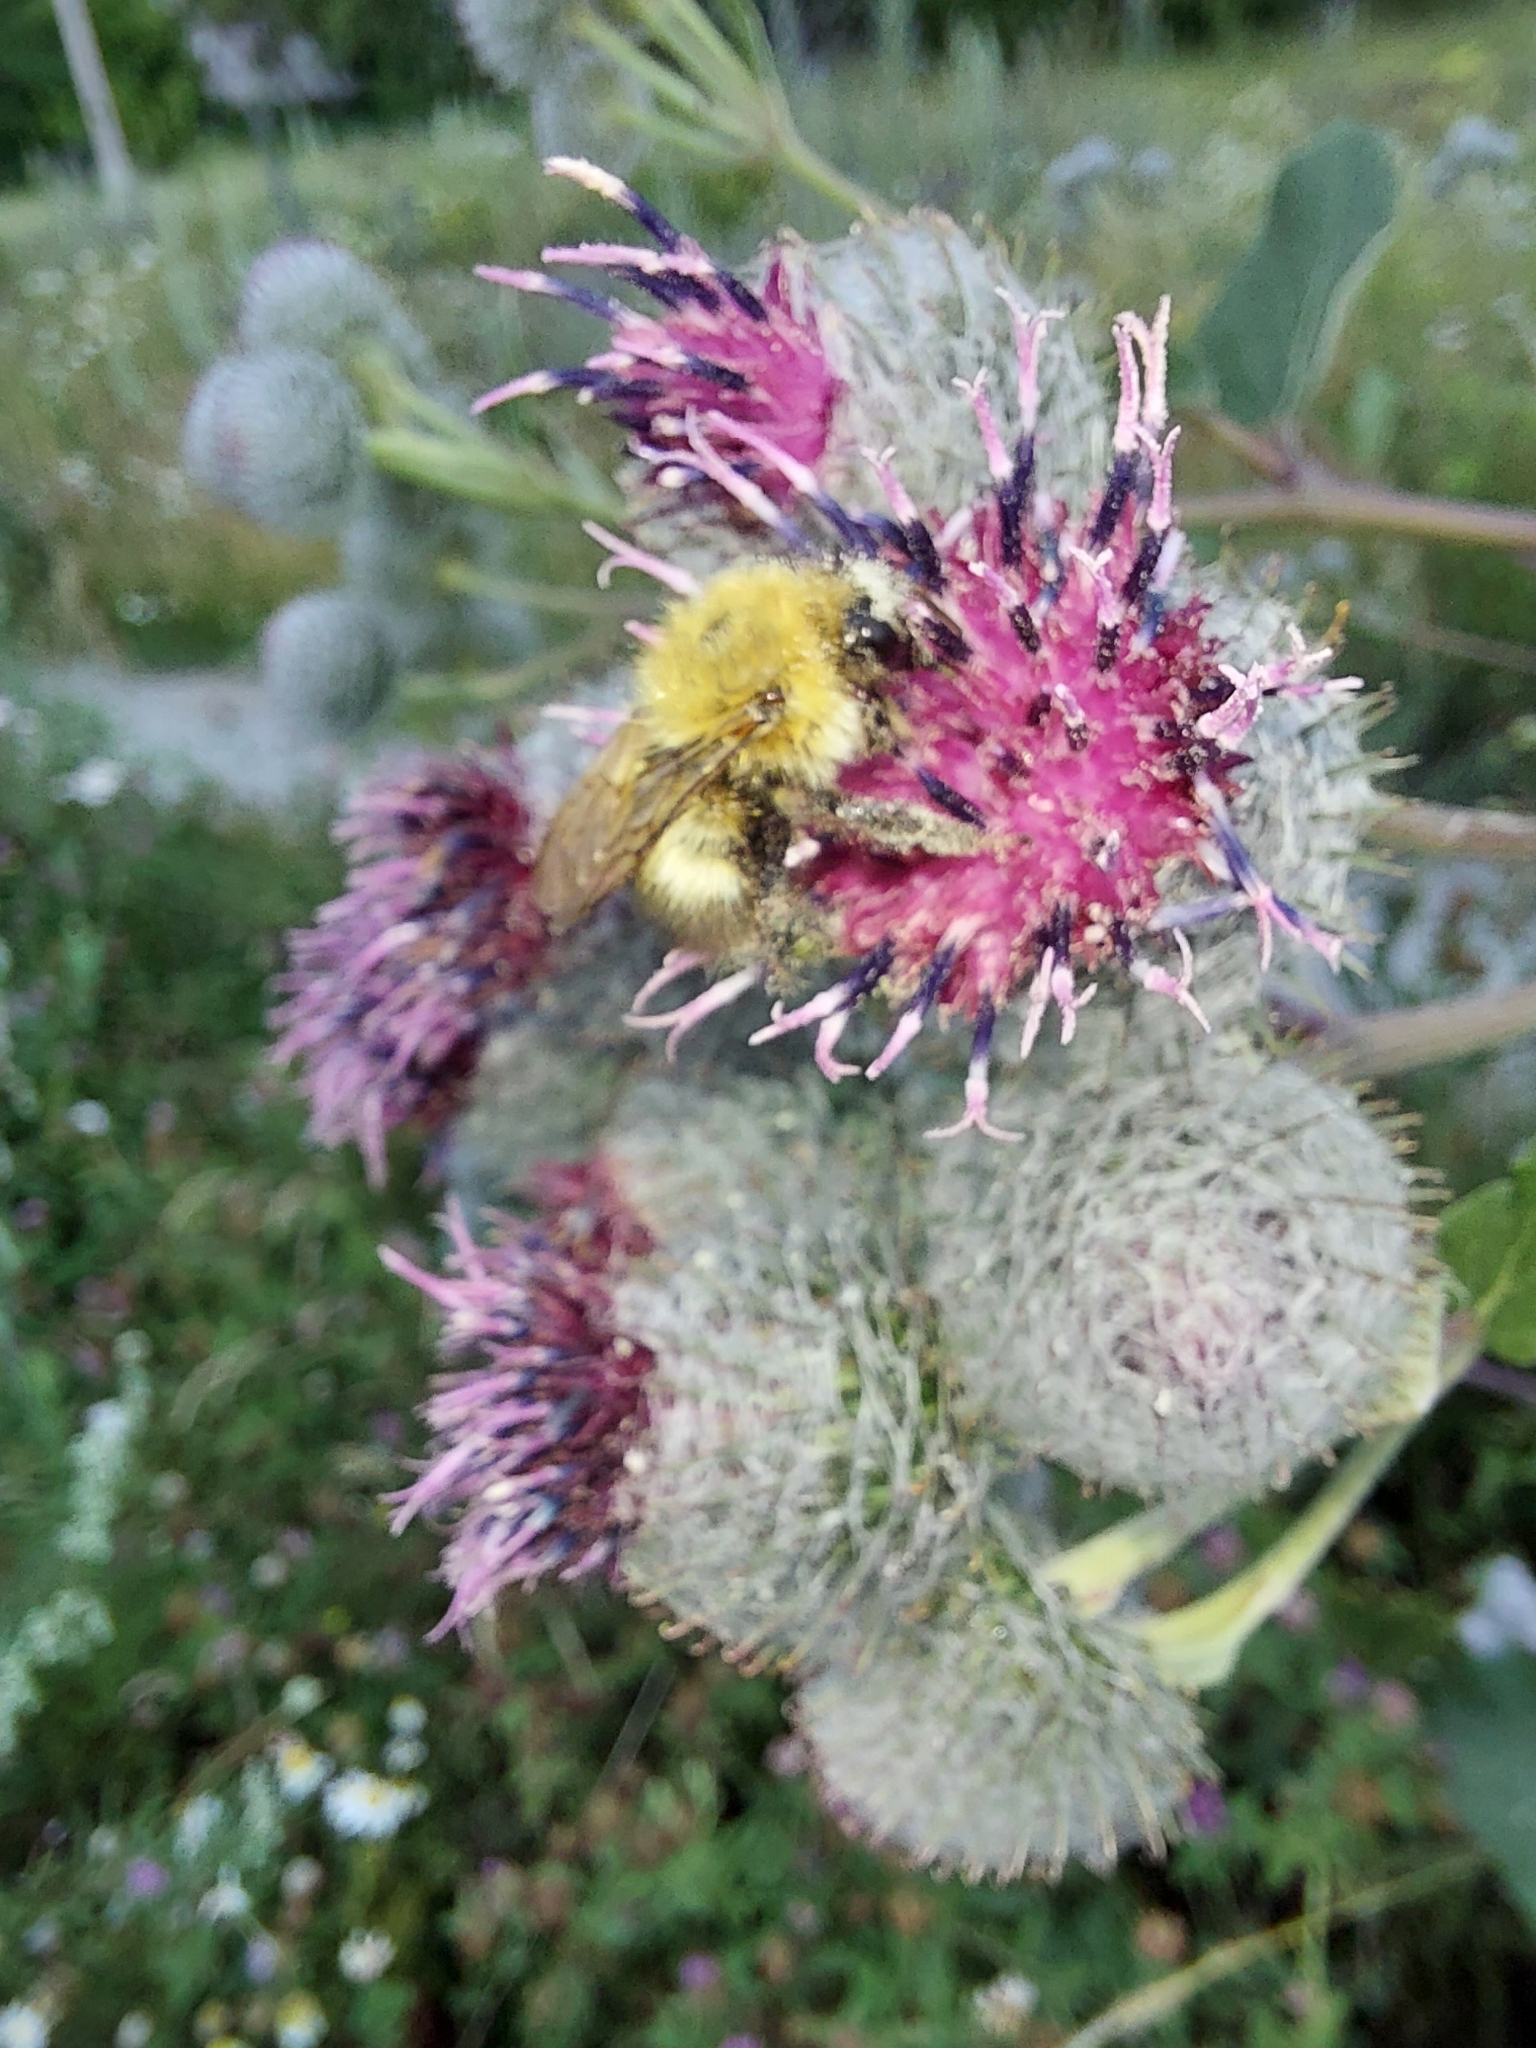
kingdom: Animalia
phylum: Arthropoda
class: Insecta
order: Hymenoptera
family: Apidae
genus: Bombus
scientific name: Bombus hypnorum
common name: New garden bumblebee
